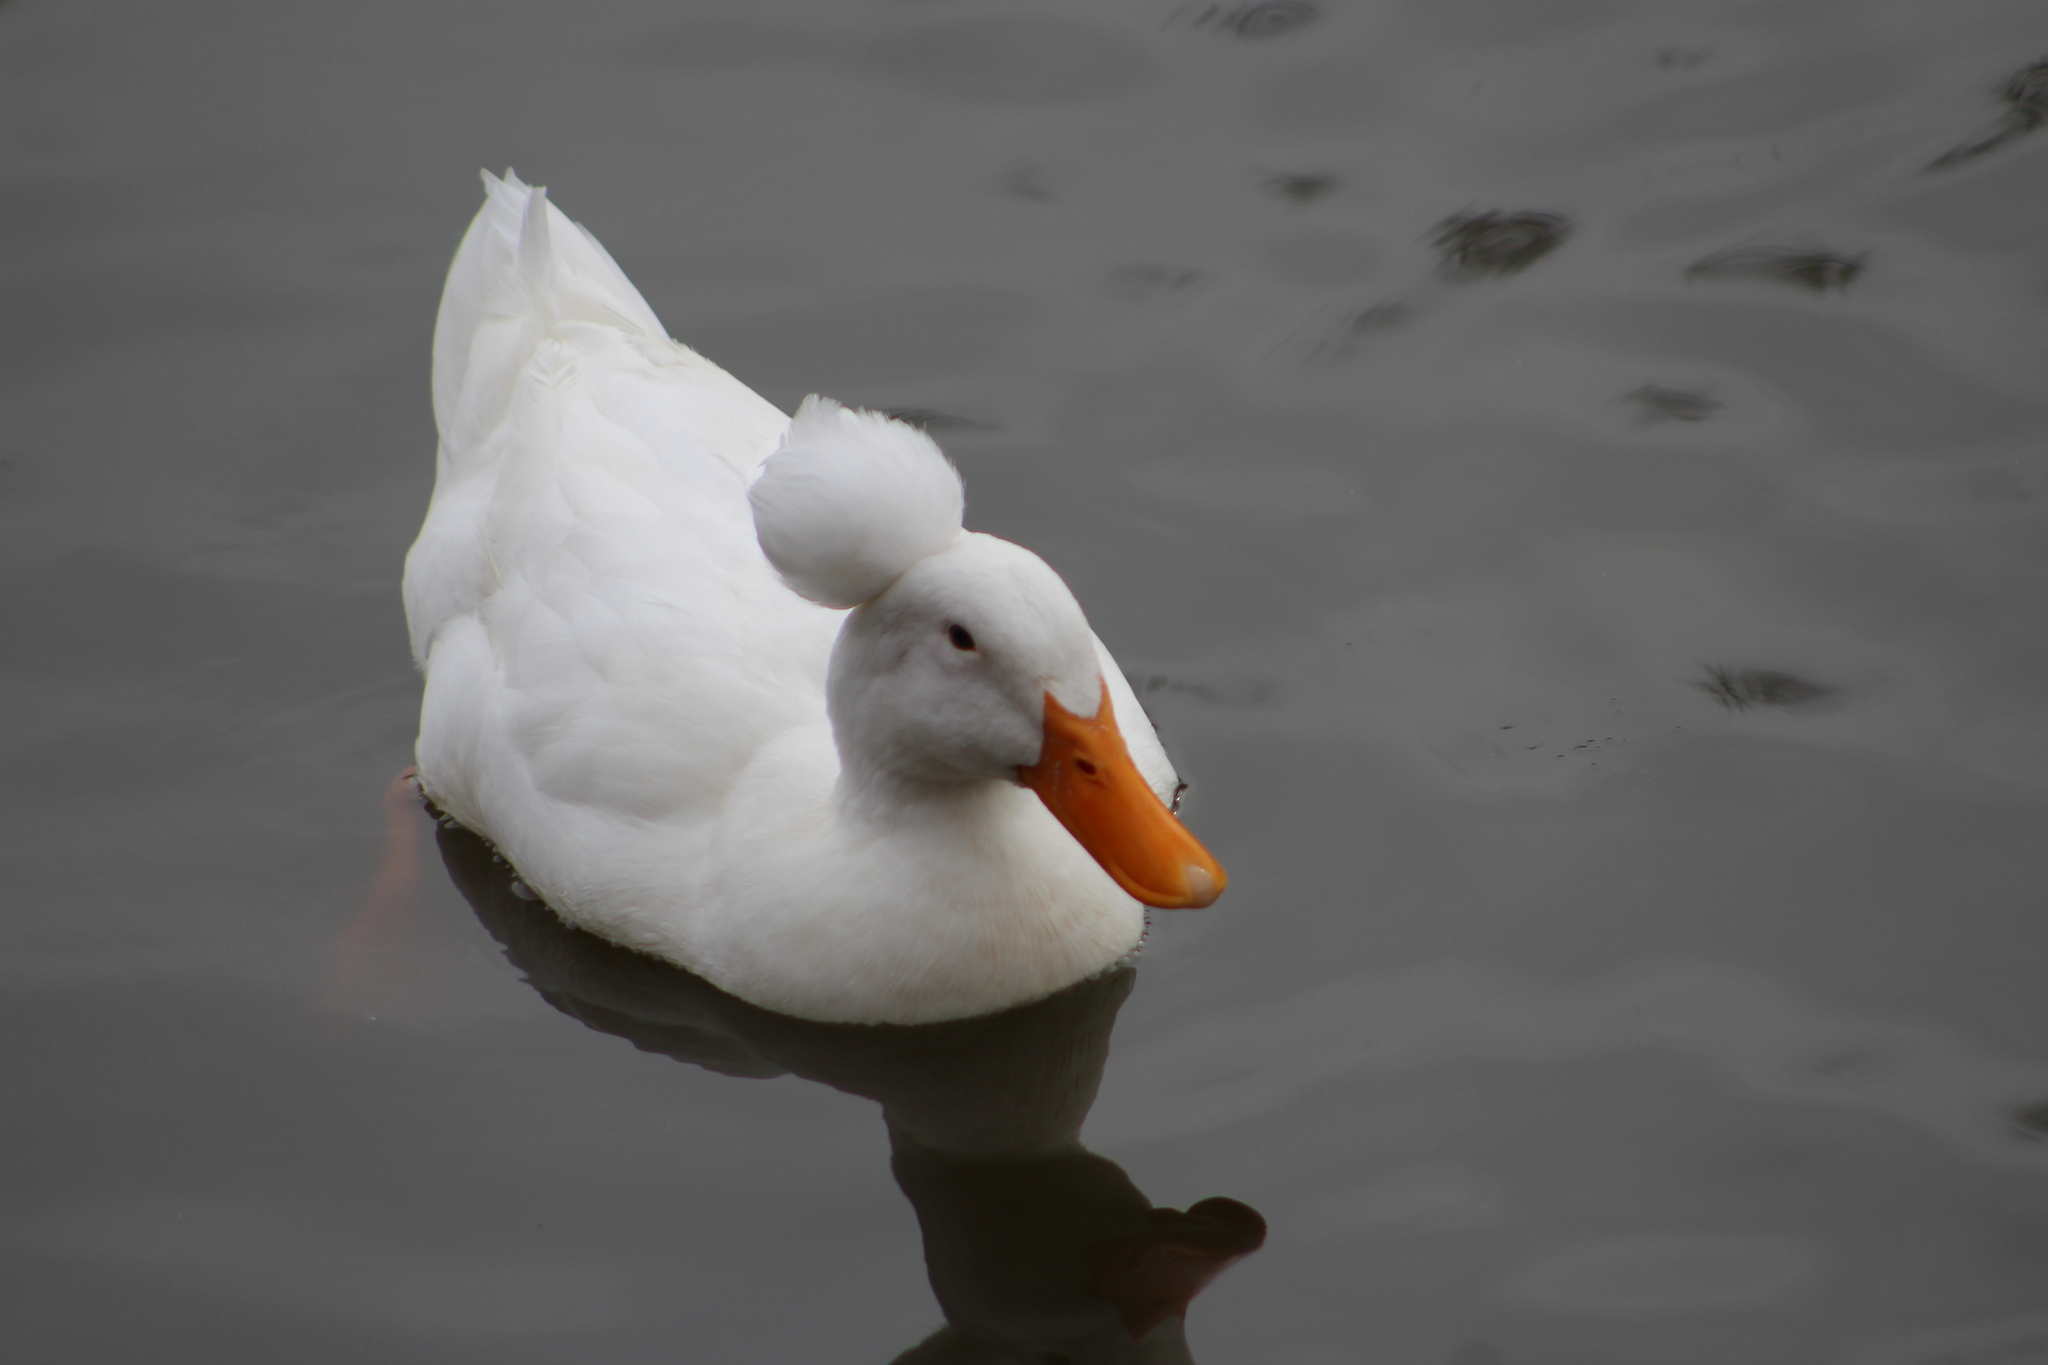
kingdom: Animalia
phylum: Chordata
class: Aves
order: Anseriformes
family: Anatidae
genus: Anas
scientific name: Anas platyrhynchos
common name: Mallard
